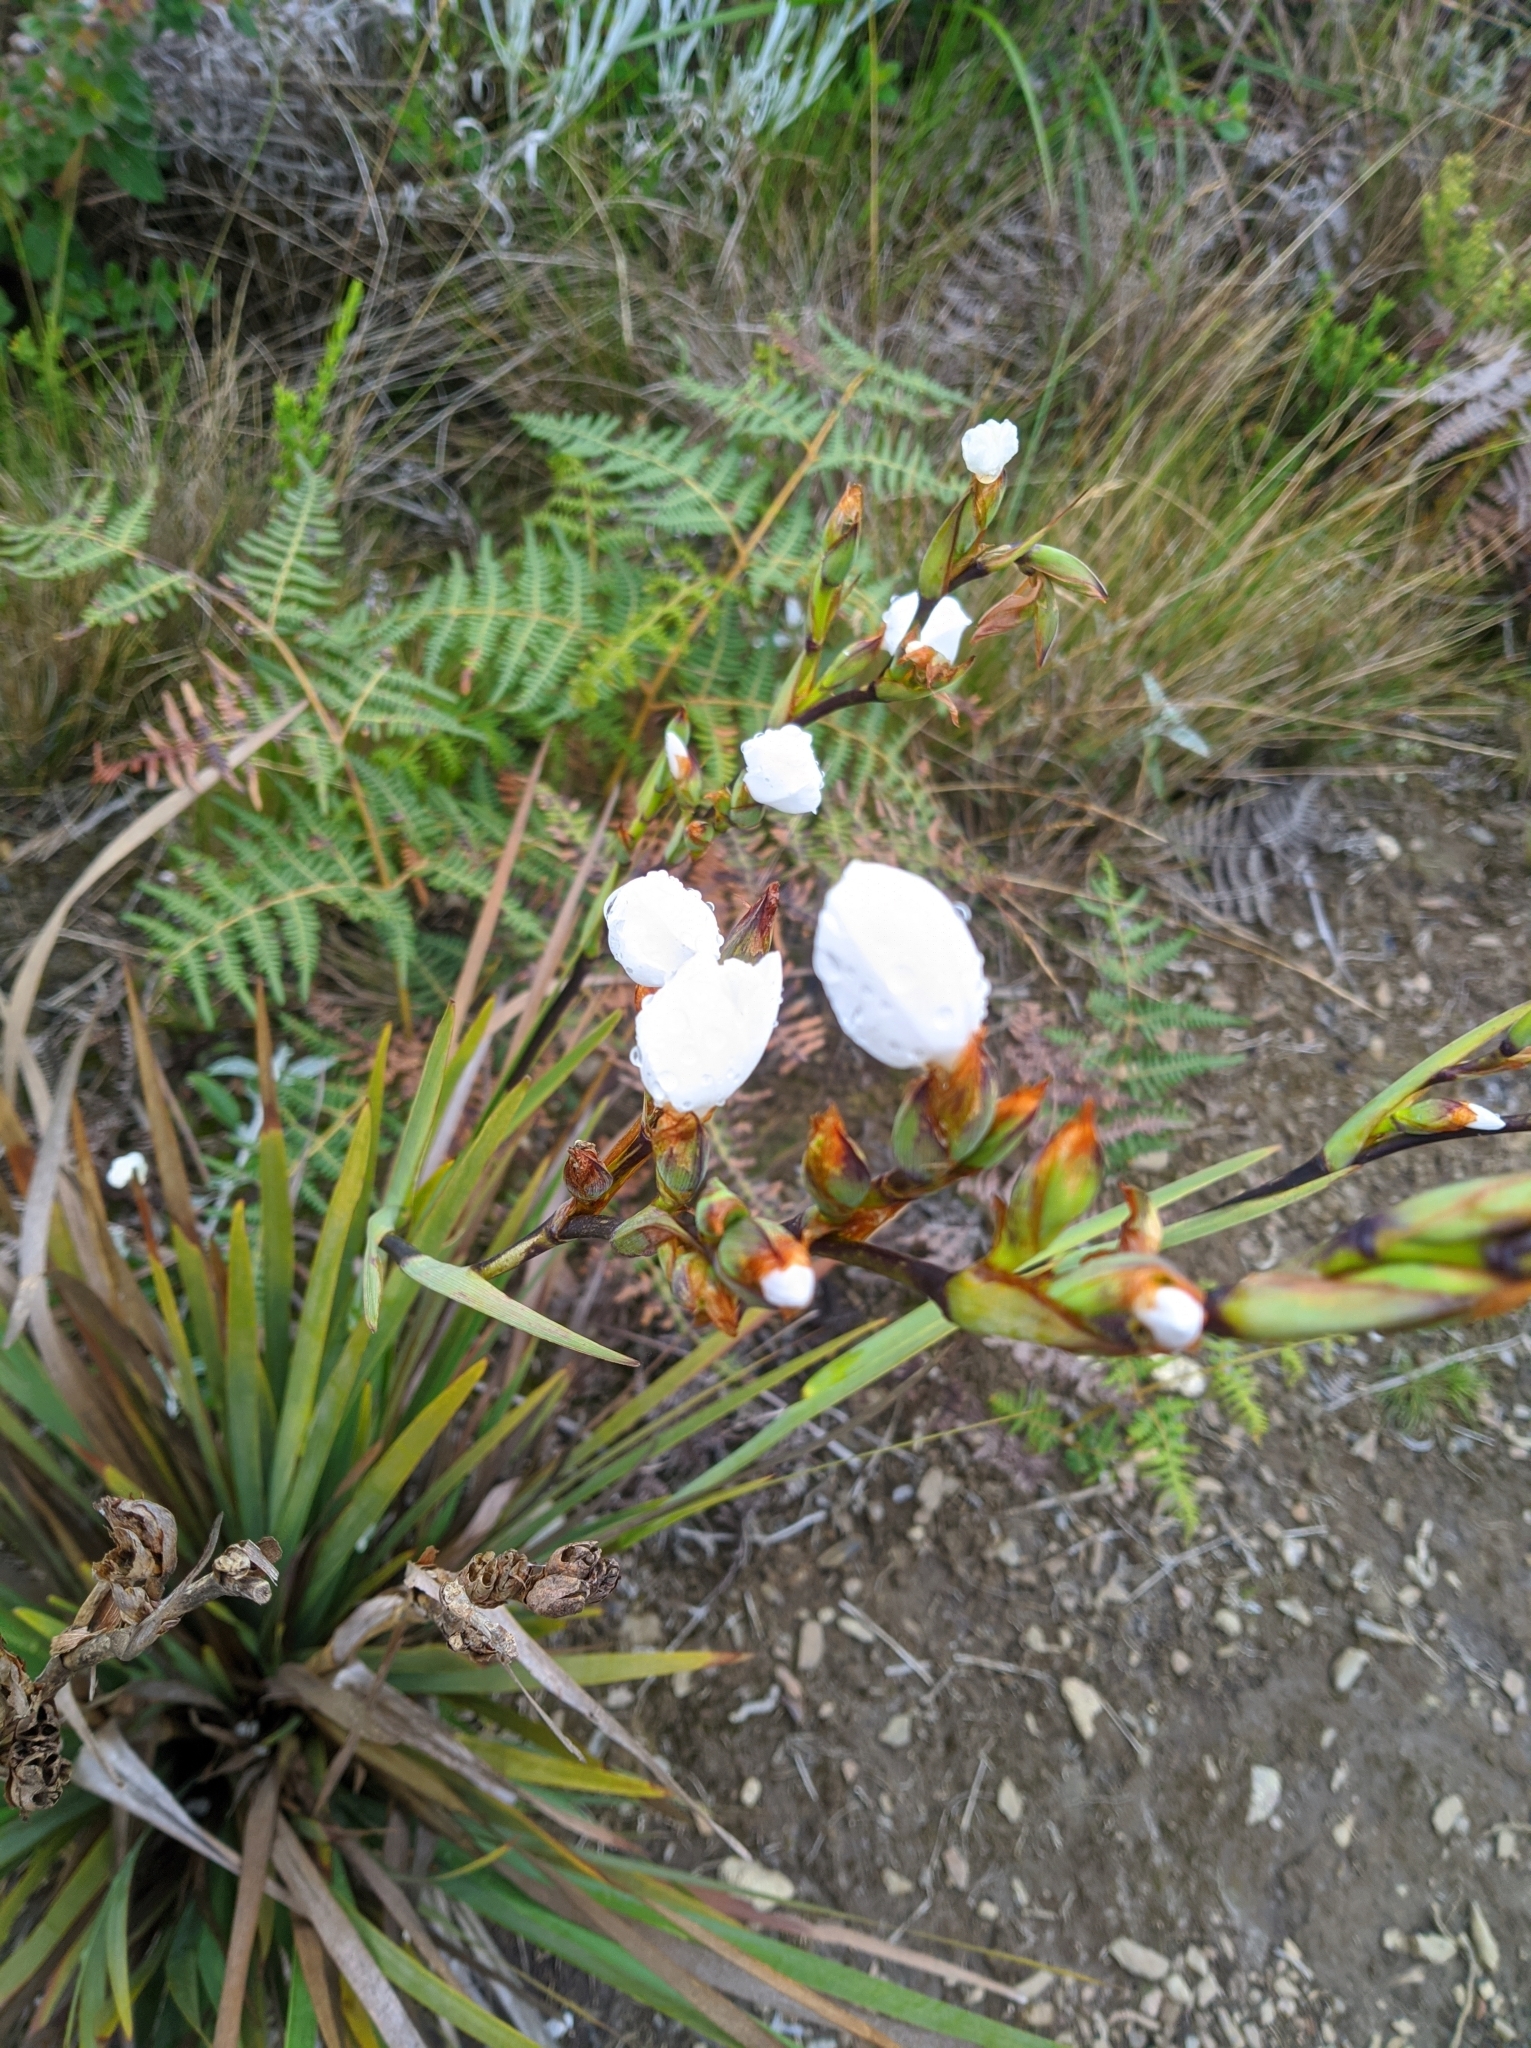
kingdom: Plantae
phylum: Tracheophyta
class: Liliopsida
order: Asparagales
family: Iridaceae
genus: Orthrosanthus
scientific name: Orthrosanthus acorifolius
